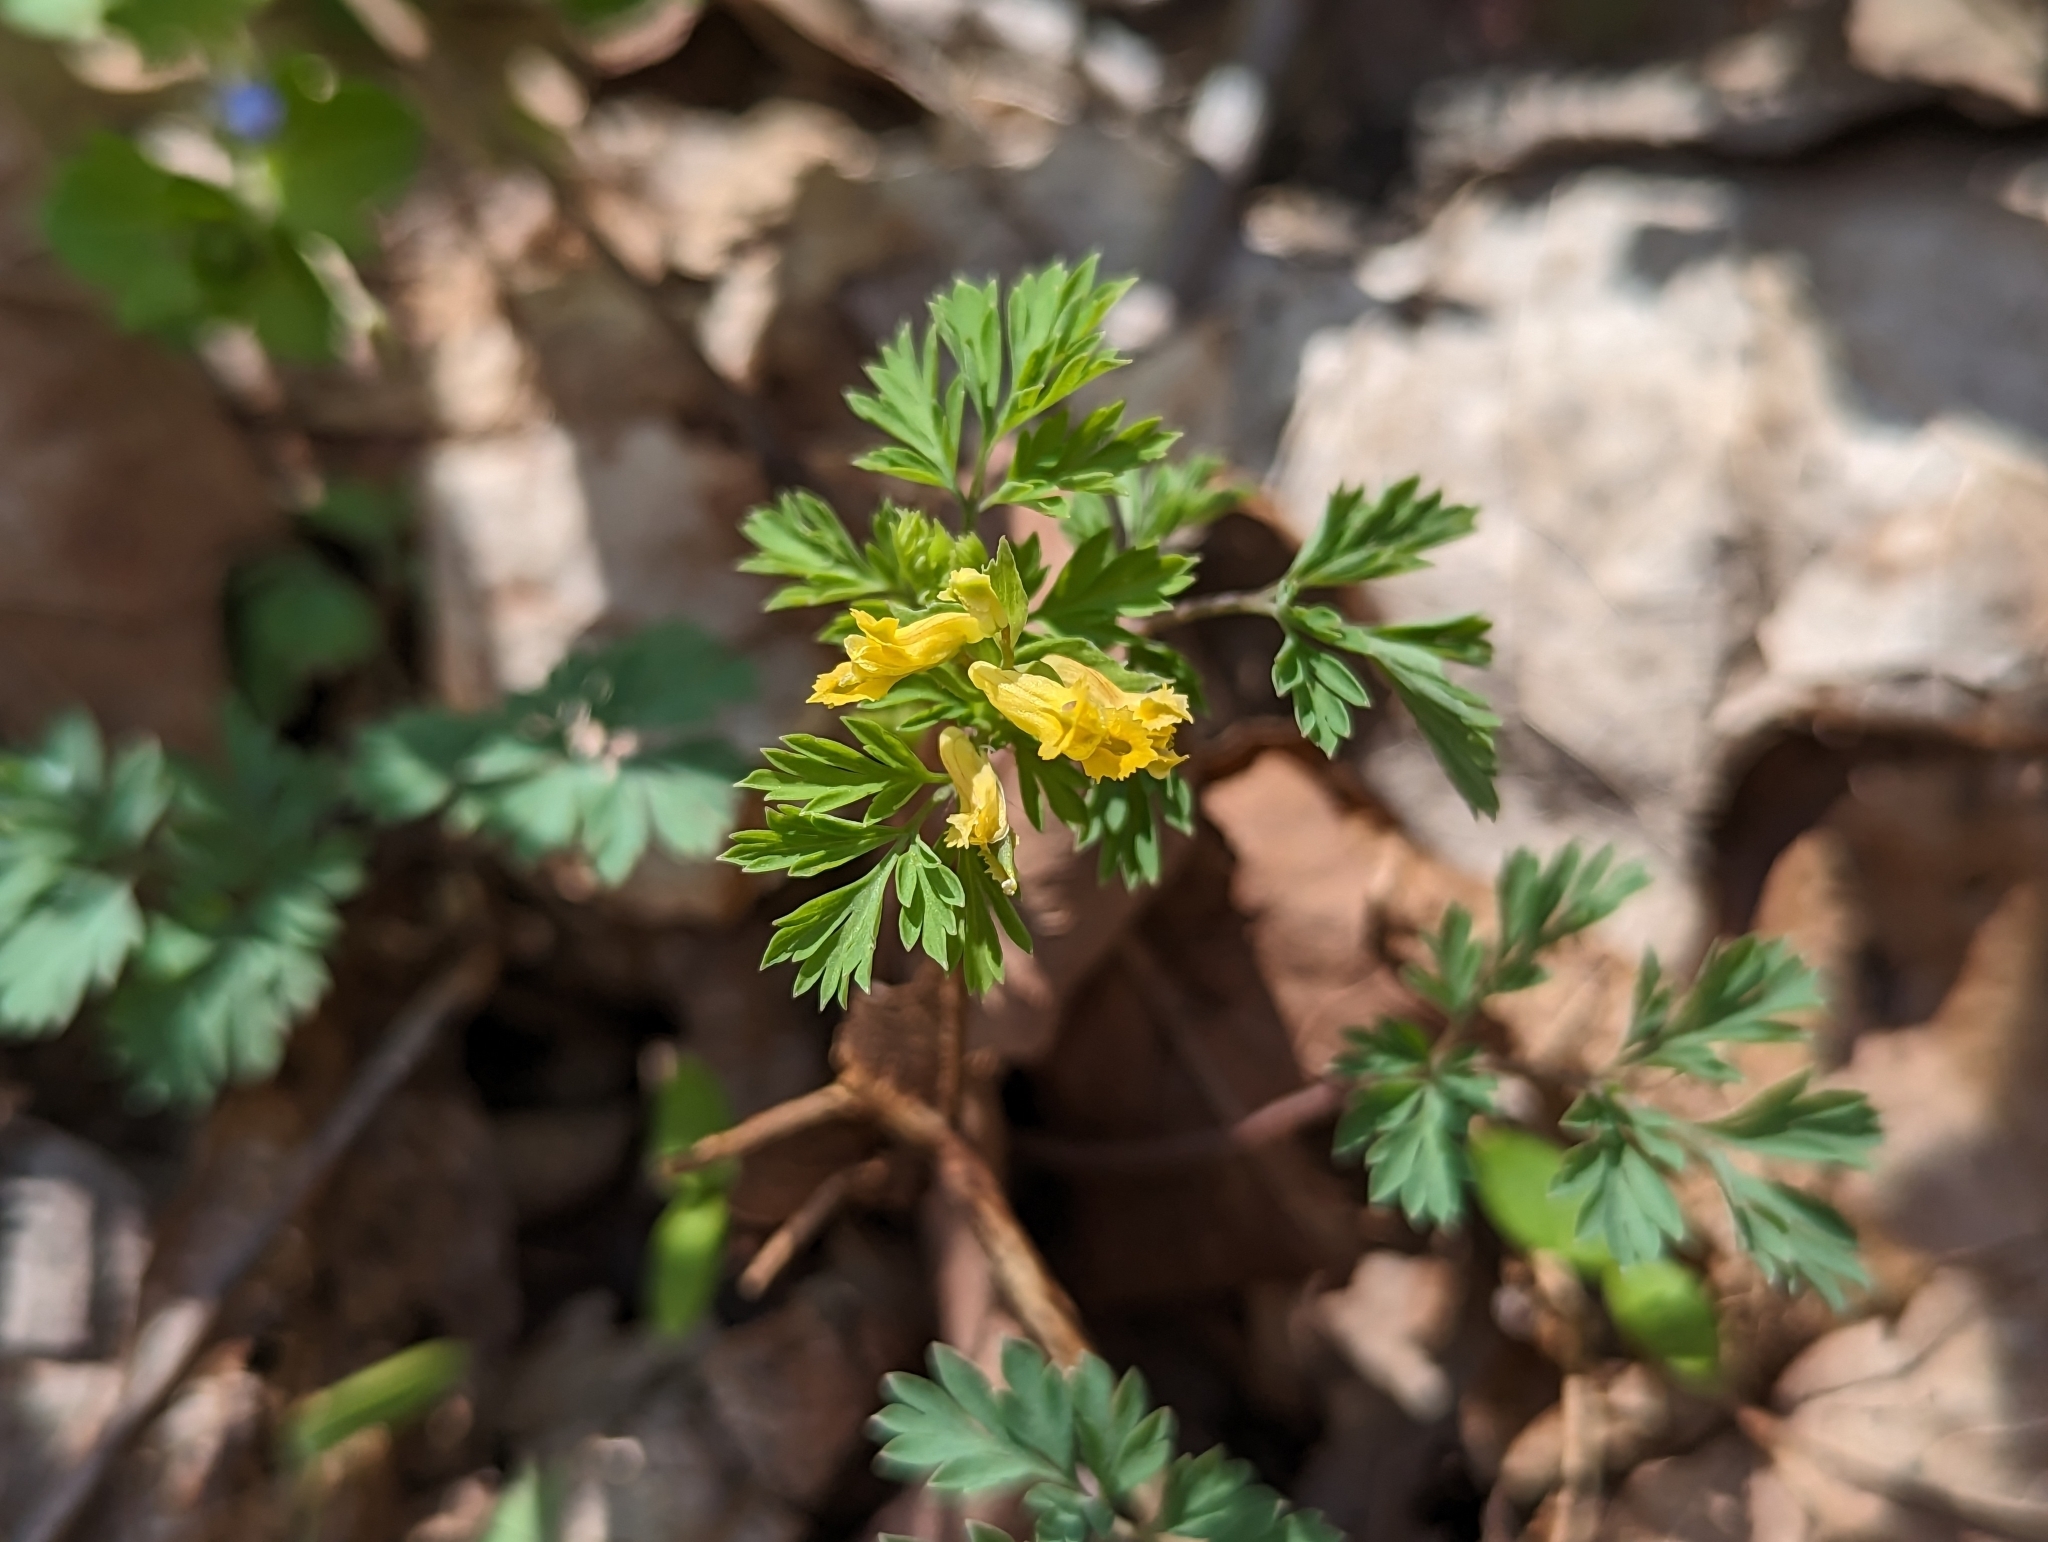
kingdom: Plantae
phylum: Tracheophyta
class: Magnoliopsida
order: Ranunculales
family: Papaveraceae
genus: Corydalis
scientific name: Corydalis flavula
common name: Yellow corydalis
